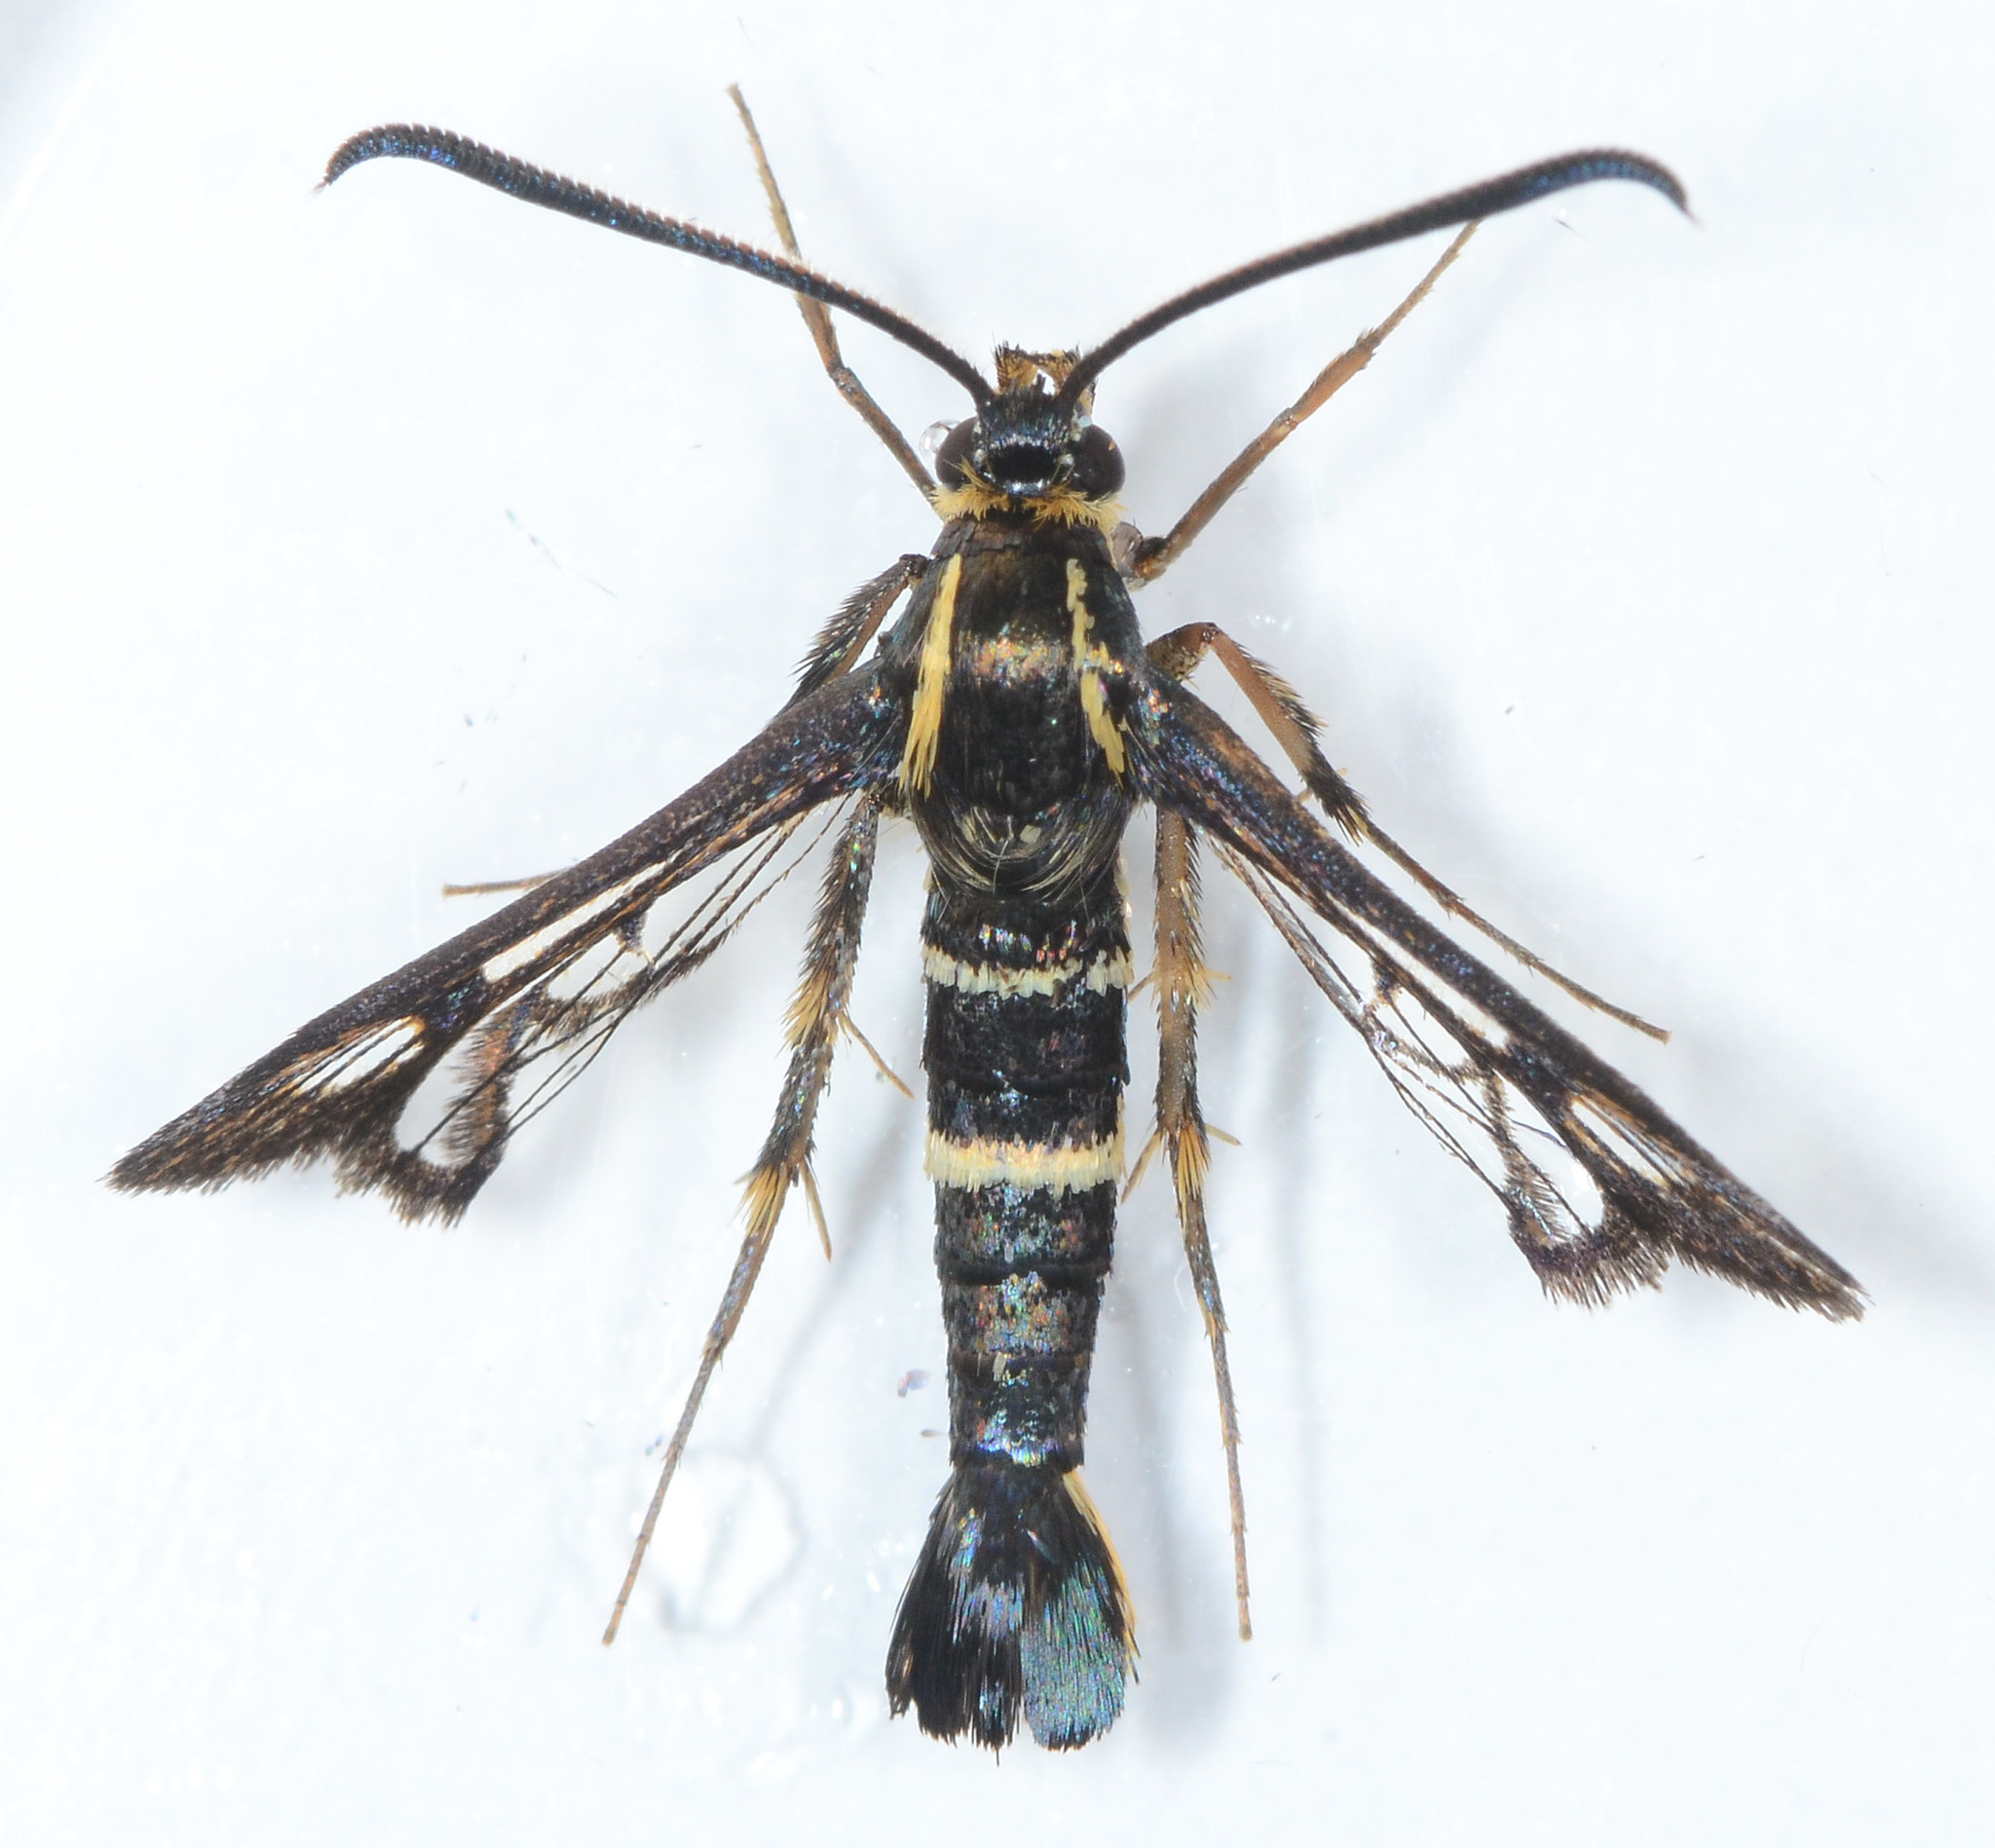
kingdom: Animalia
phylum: Arthropoda
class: Insecta
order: Lepidoptera
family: Sesiidae
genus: Synanthedon
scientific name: Synanthedon bibionipennis
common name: Strawberry crown moth
